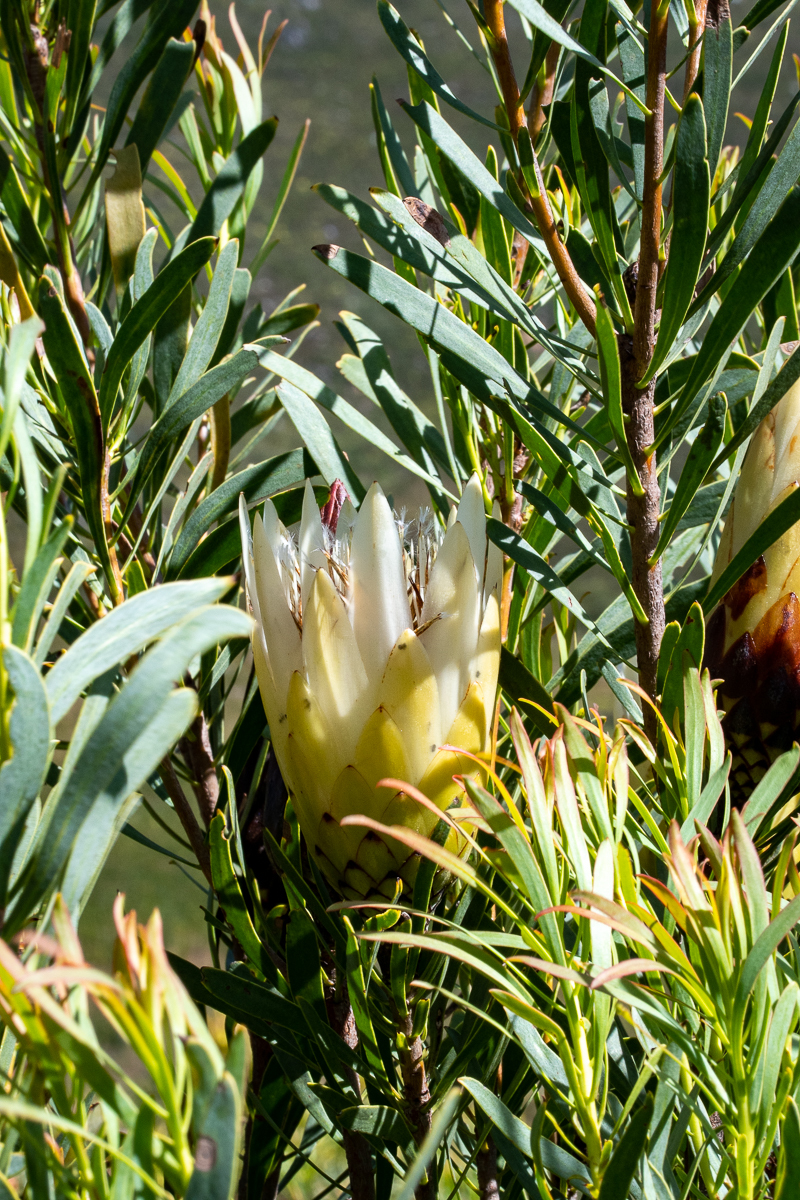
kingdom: Plantae
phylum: Tracheophyta
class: Magnoliopsida
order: Proteales
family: Proteaceae
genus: Protea
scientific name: Protea repens
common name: Sugarbush
